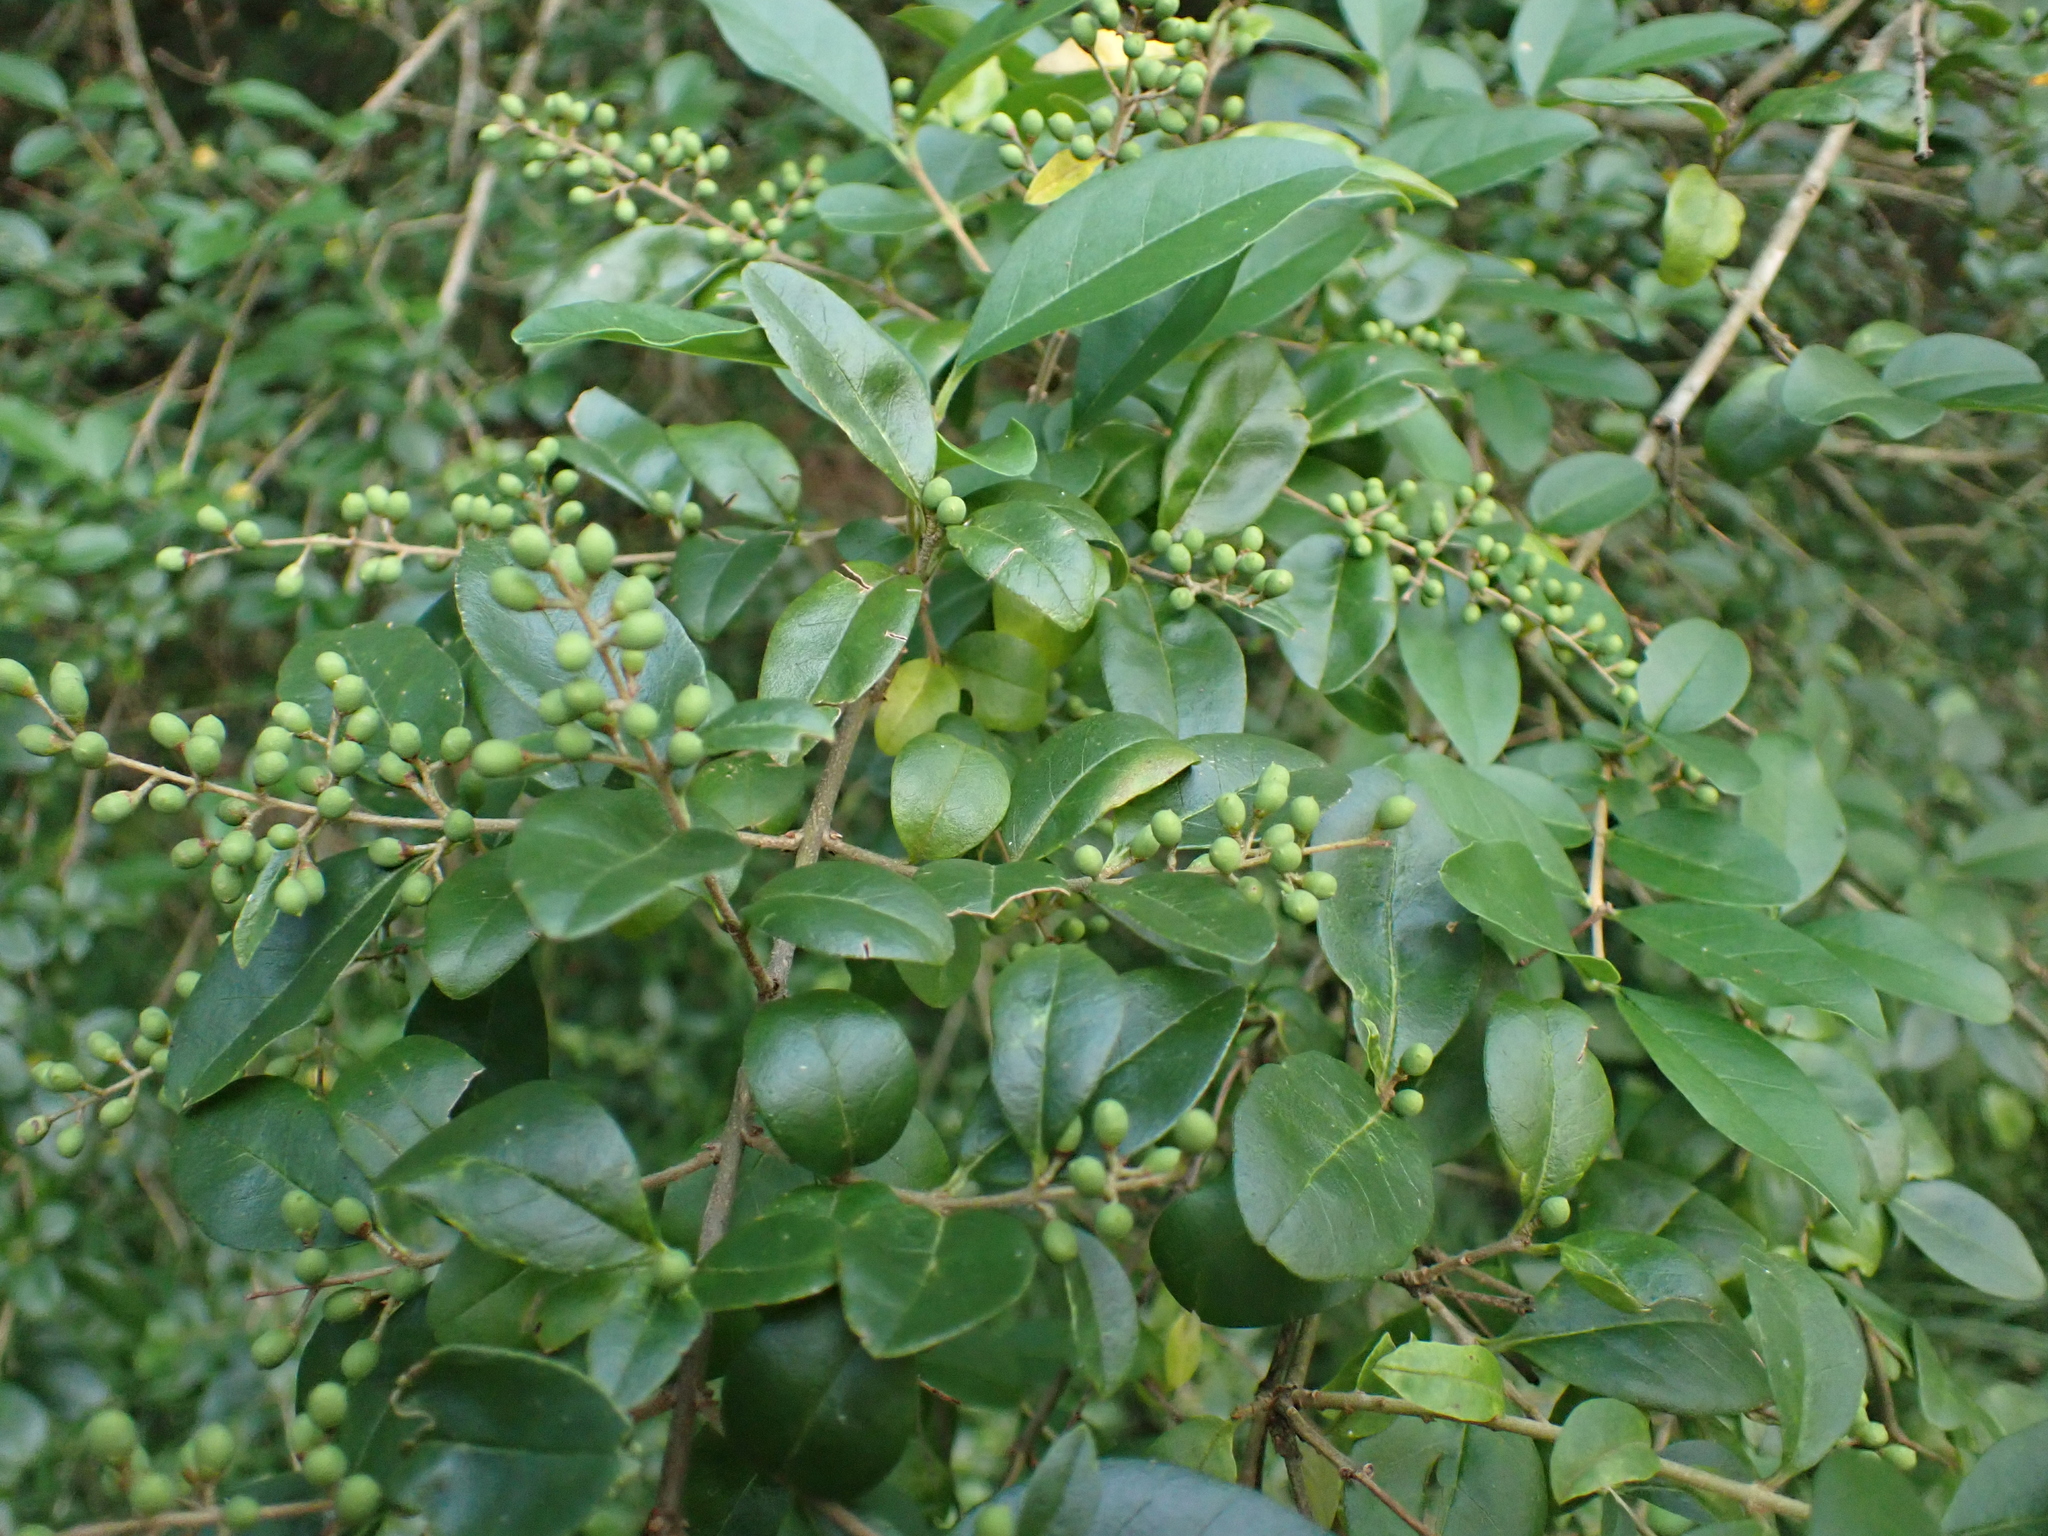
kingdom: Plantae
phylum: Tracheophyta
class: Magnoliopsida
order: Lamiales
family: Oleaceae
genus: Ligustrum
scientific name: Ligustrum sinense
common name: Chinese privet
